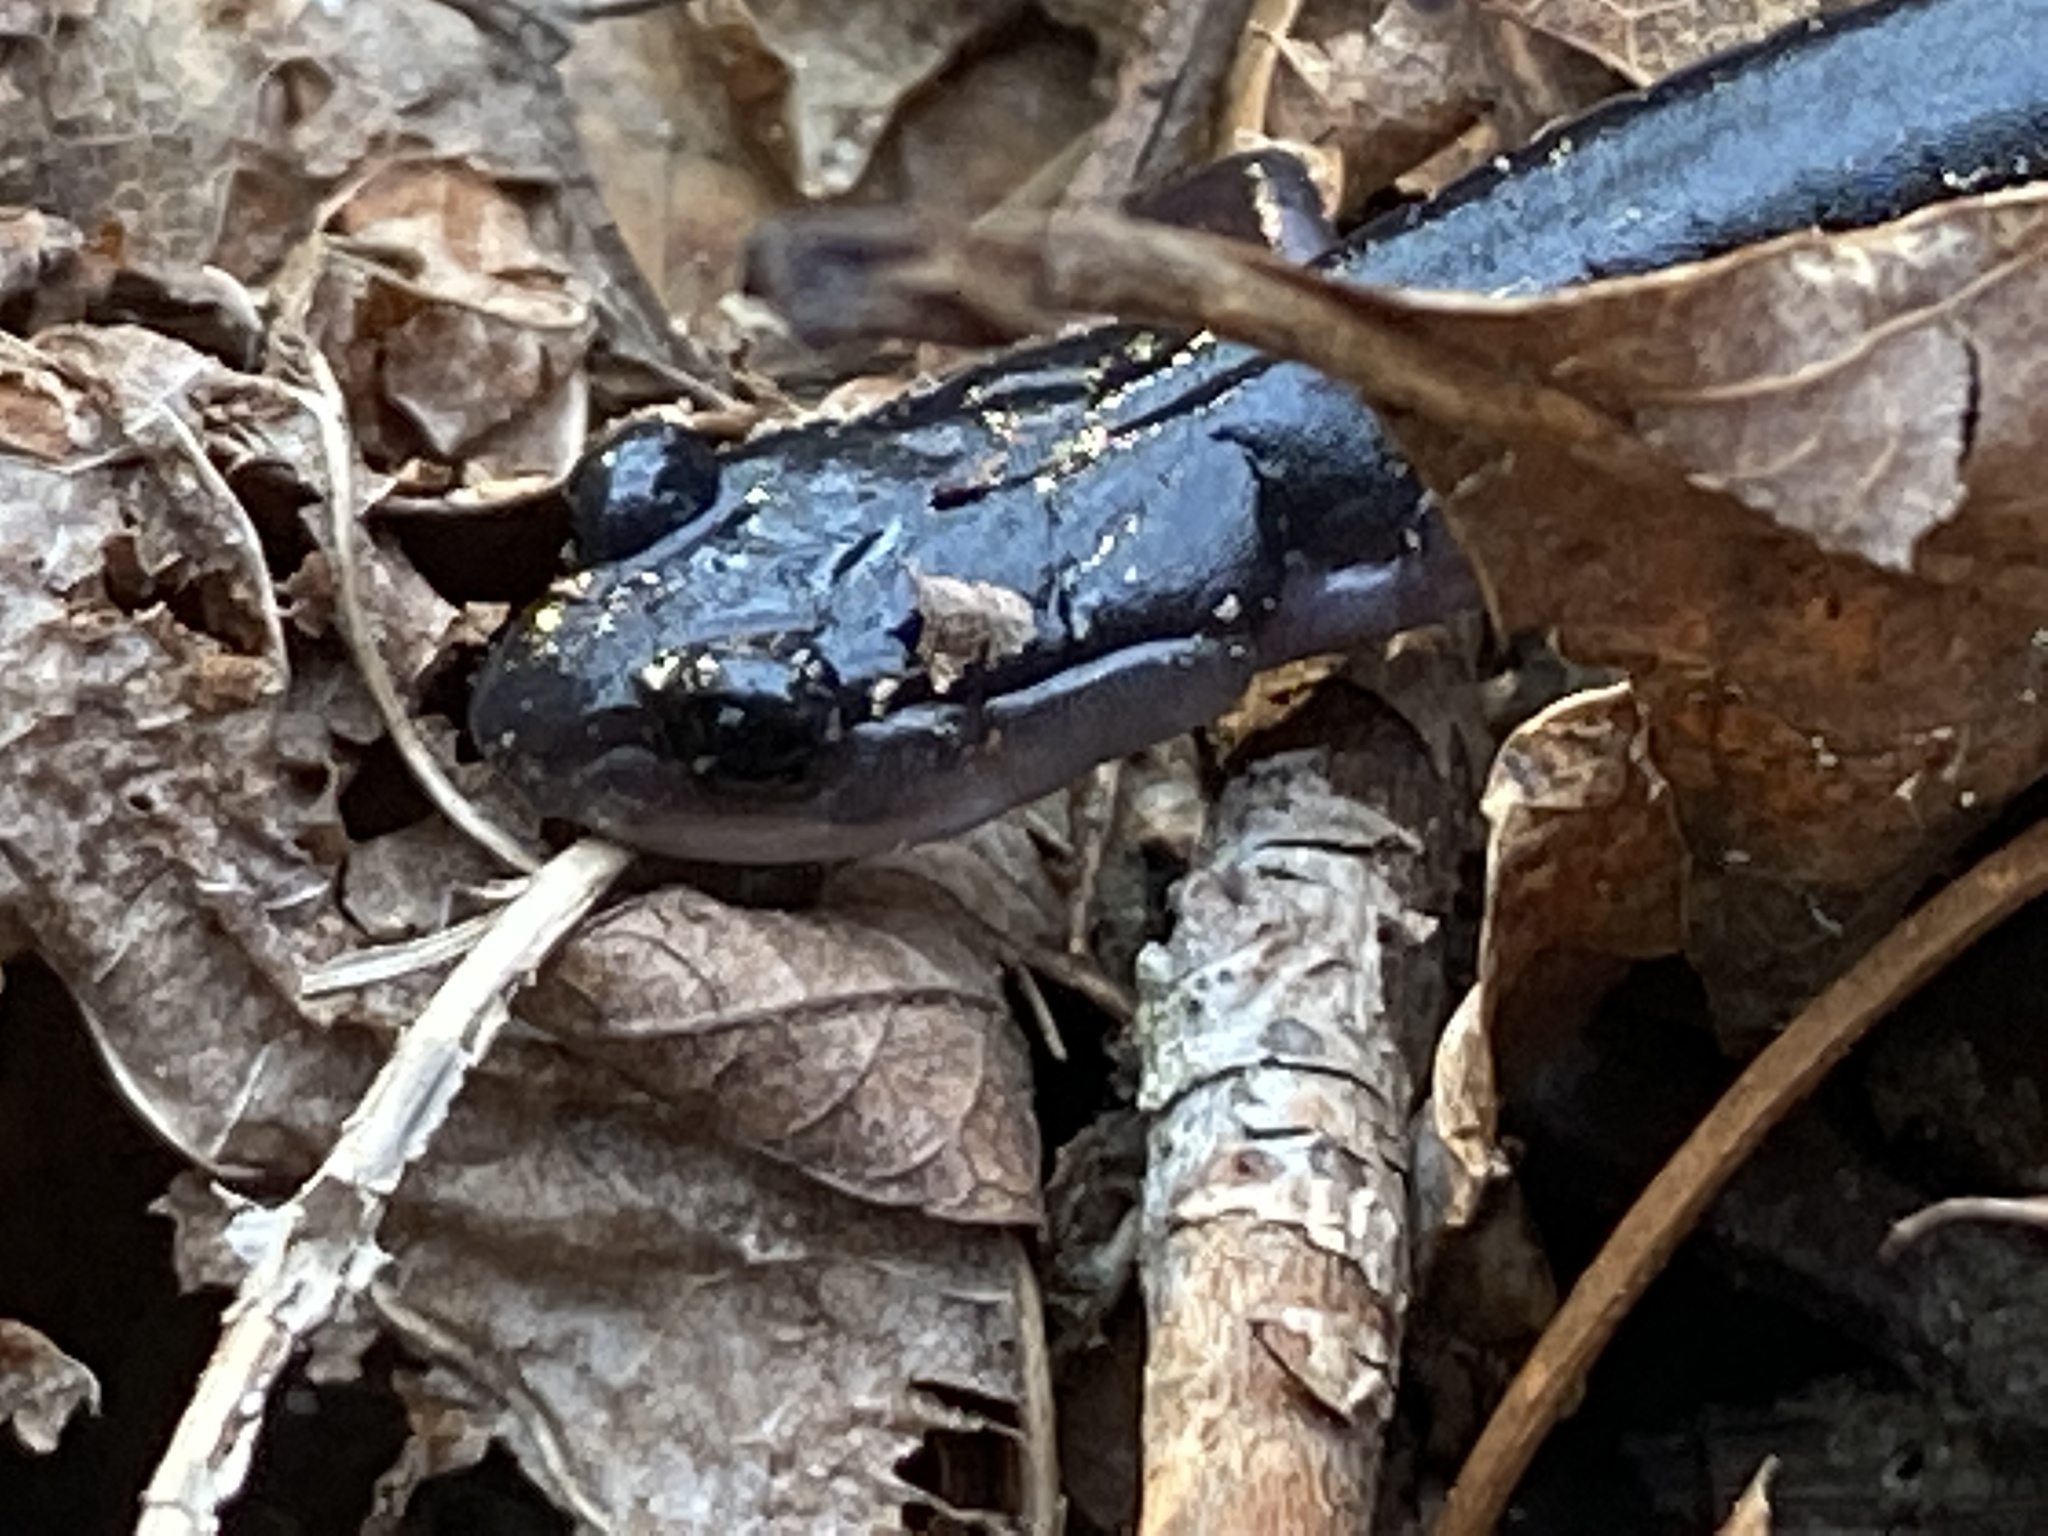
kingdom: Animalia
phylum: Chordata
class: Amphibia
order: Caudata
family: Plethodontidae
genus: Plethodon
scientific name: Plethodon metcalfi
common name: Southern gray-cheeked salamander
